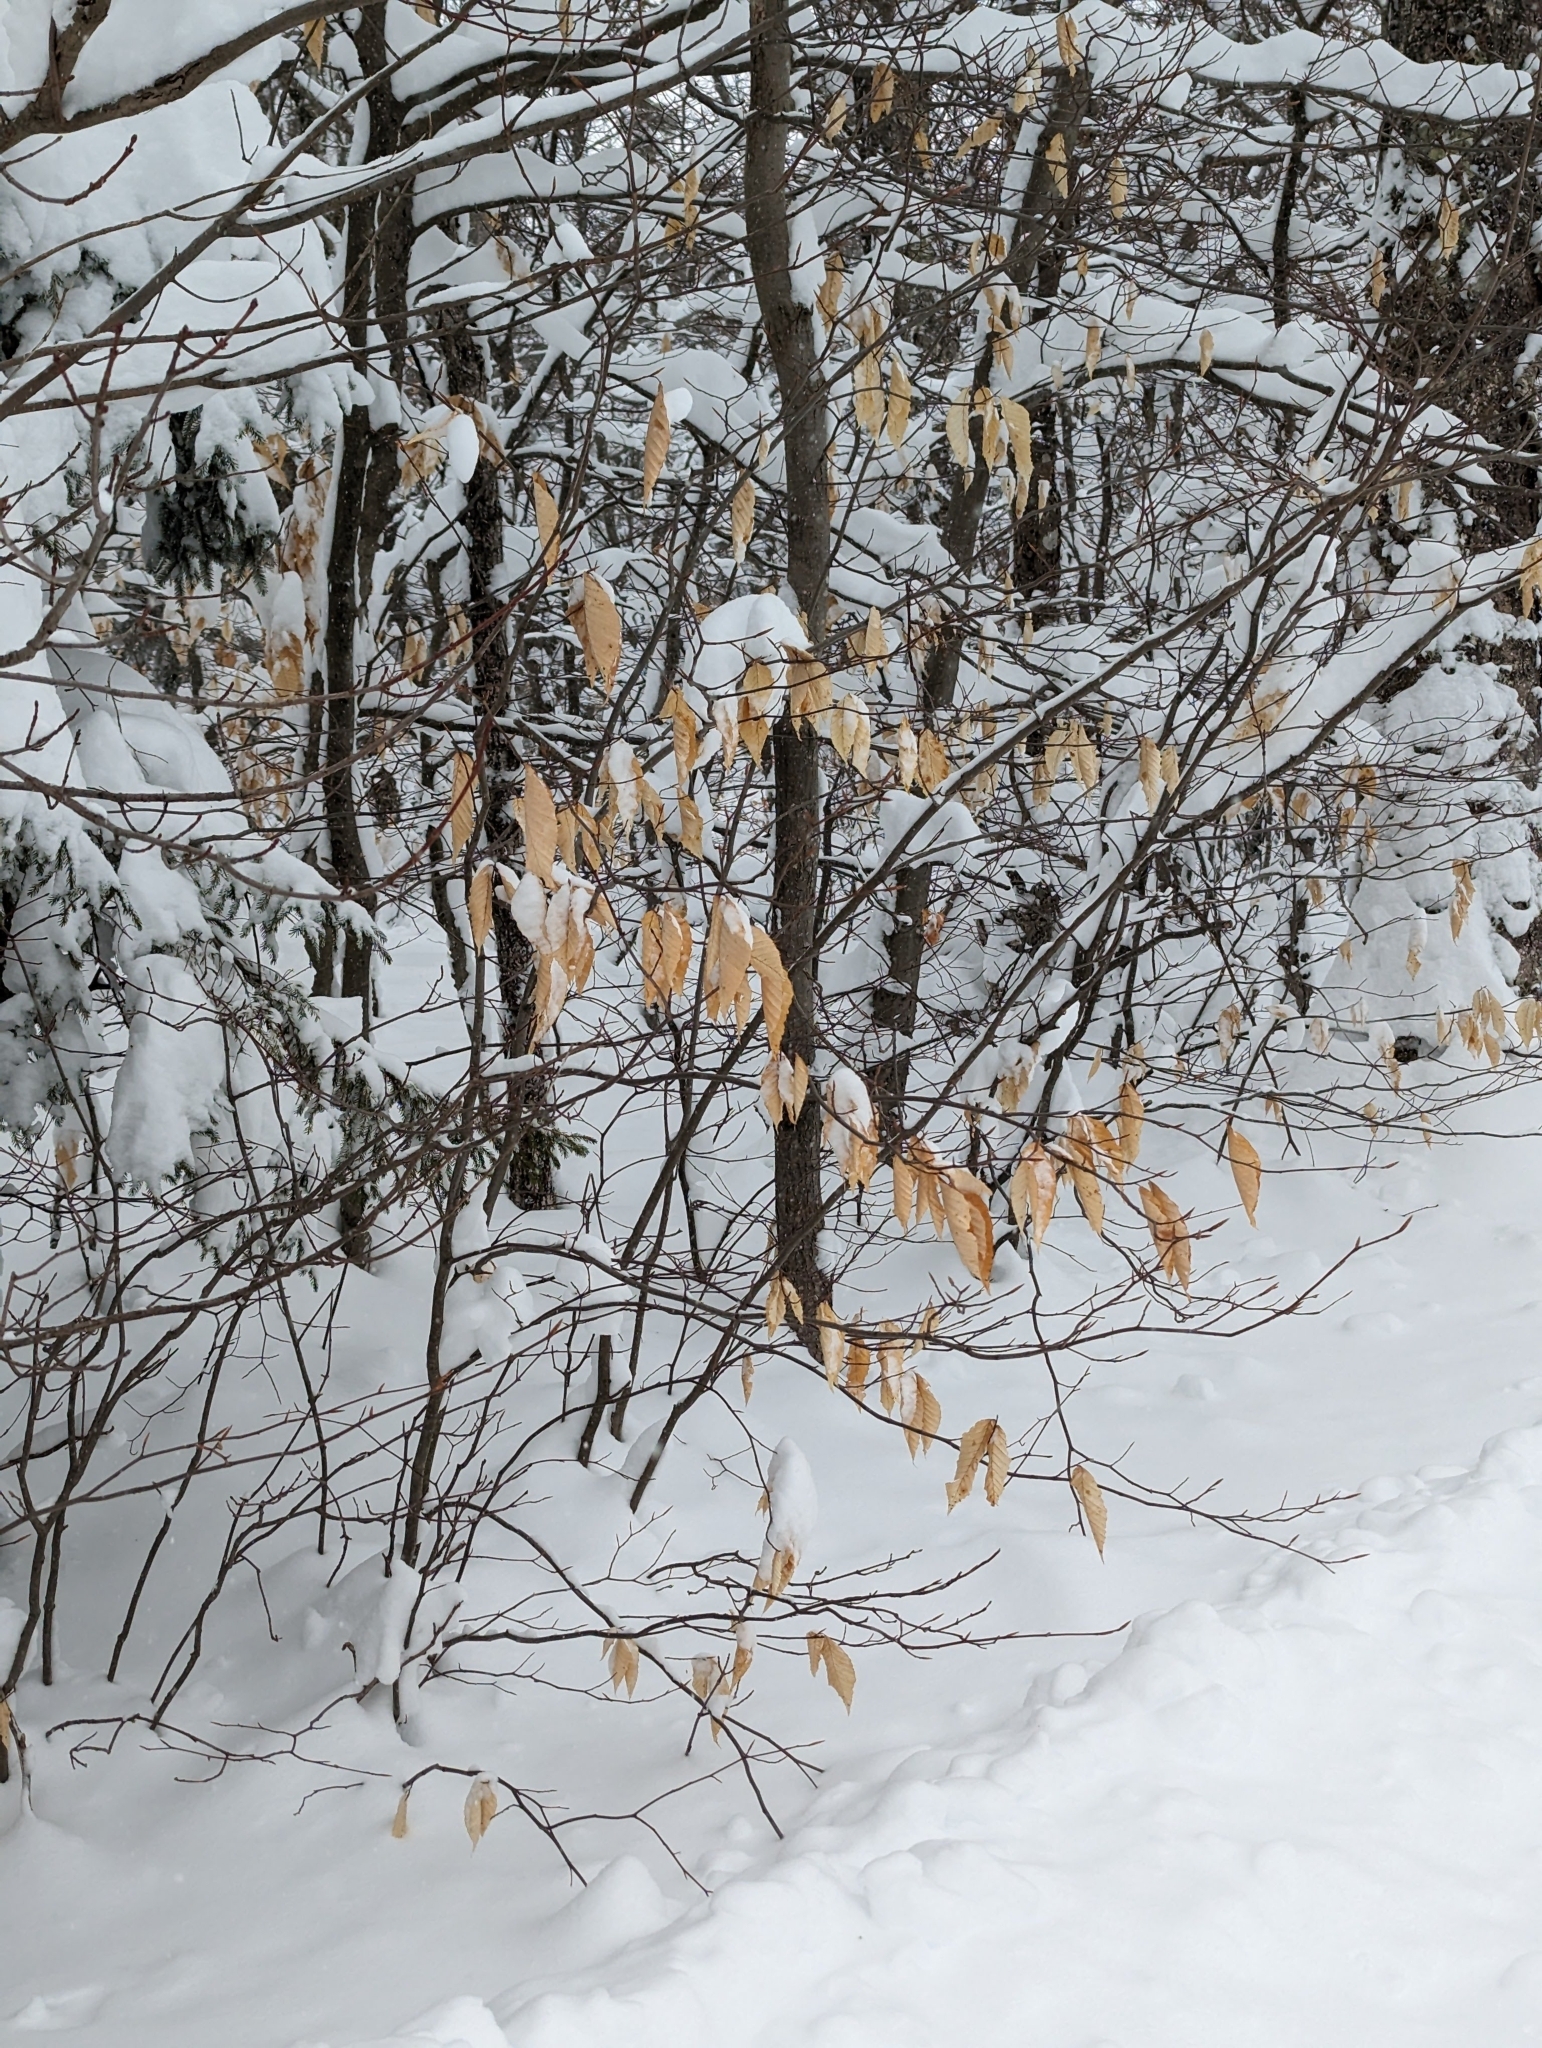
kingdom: Plantae
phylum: Tracheophyta
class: Magnoliopsida
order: Fagales
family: Fagaceae
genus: Fagus
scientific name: Fagus grandifolia
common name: American beech
